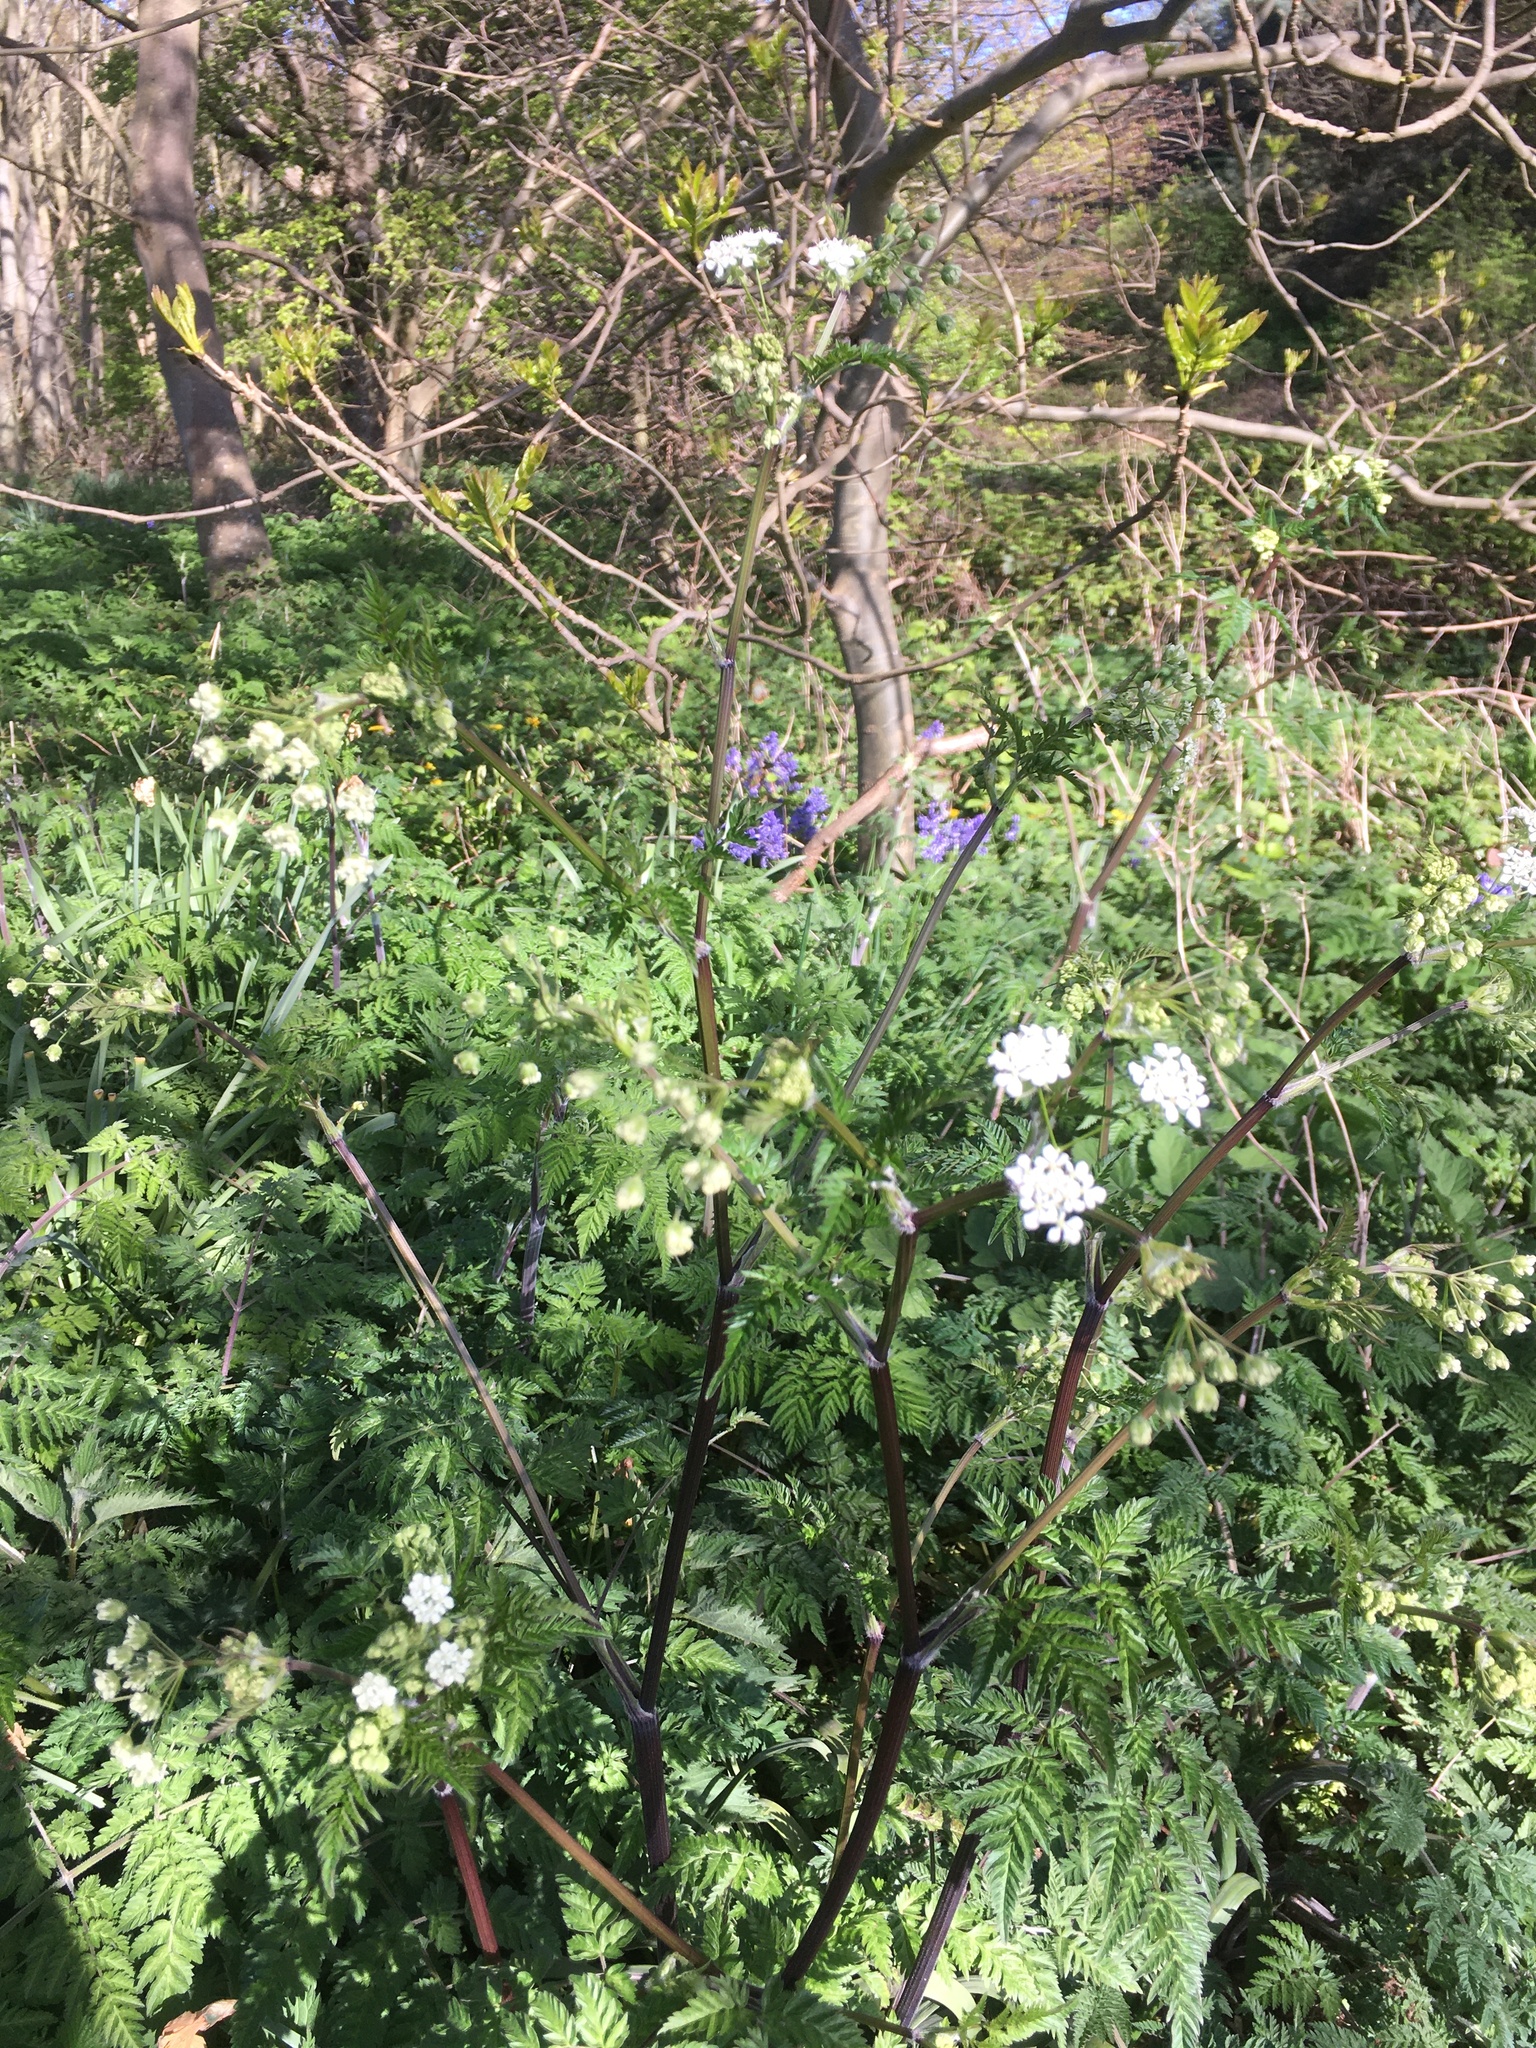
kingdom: Plantae
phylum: Tracheophyta
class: Magnoliopsida
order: Apiales
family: Apiaceae
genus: Anthriscus
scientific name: Anthriscus sylvestris
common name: Cow parsley
